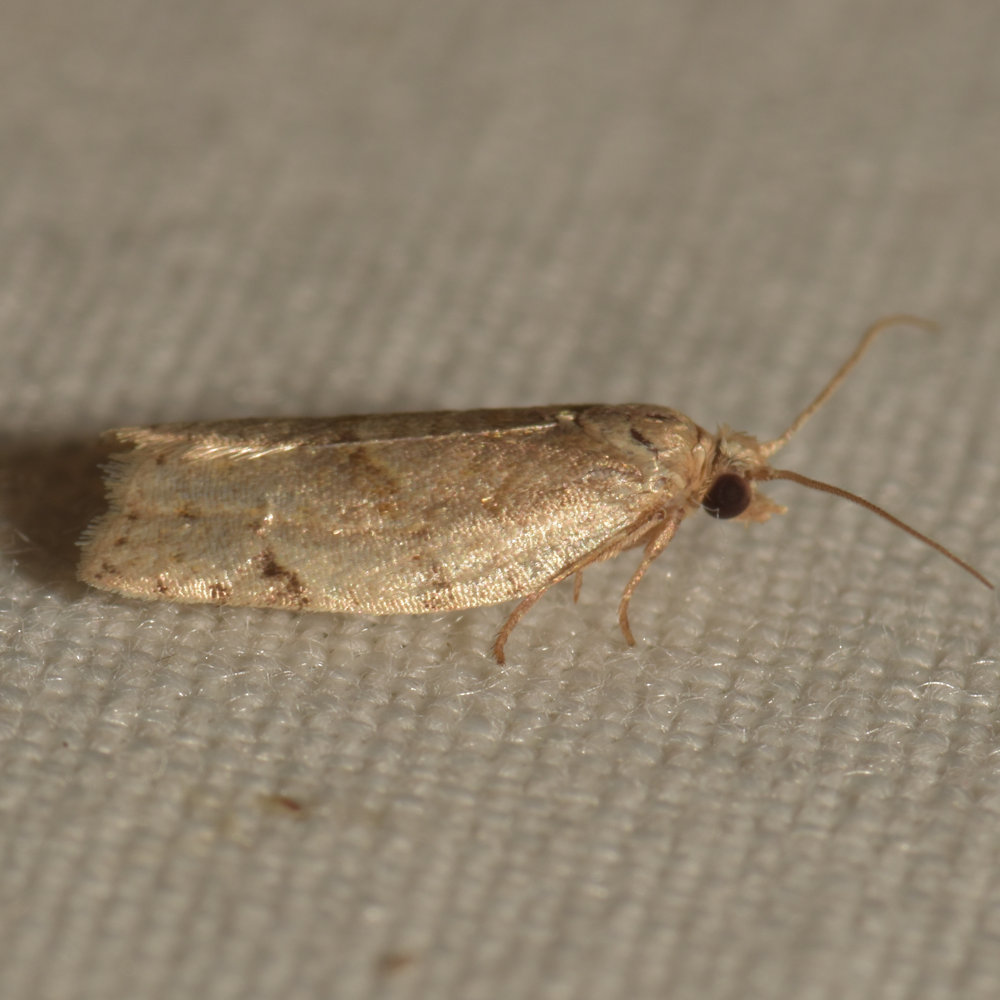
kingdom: Animalia
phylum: Arthropoda
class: Insecta
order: Lepidoptera
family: Tortricidae
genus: Clepsis
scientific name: Clepsis virescana
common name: Greenish apple moth
